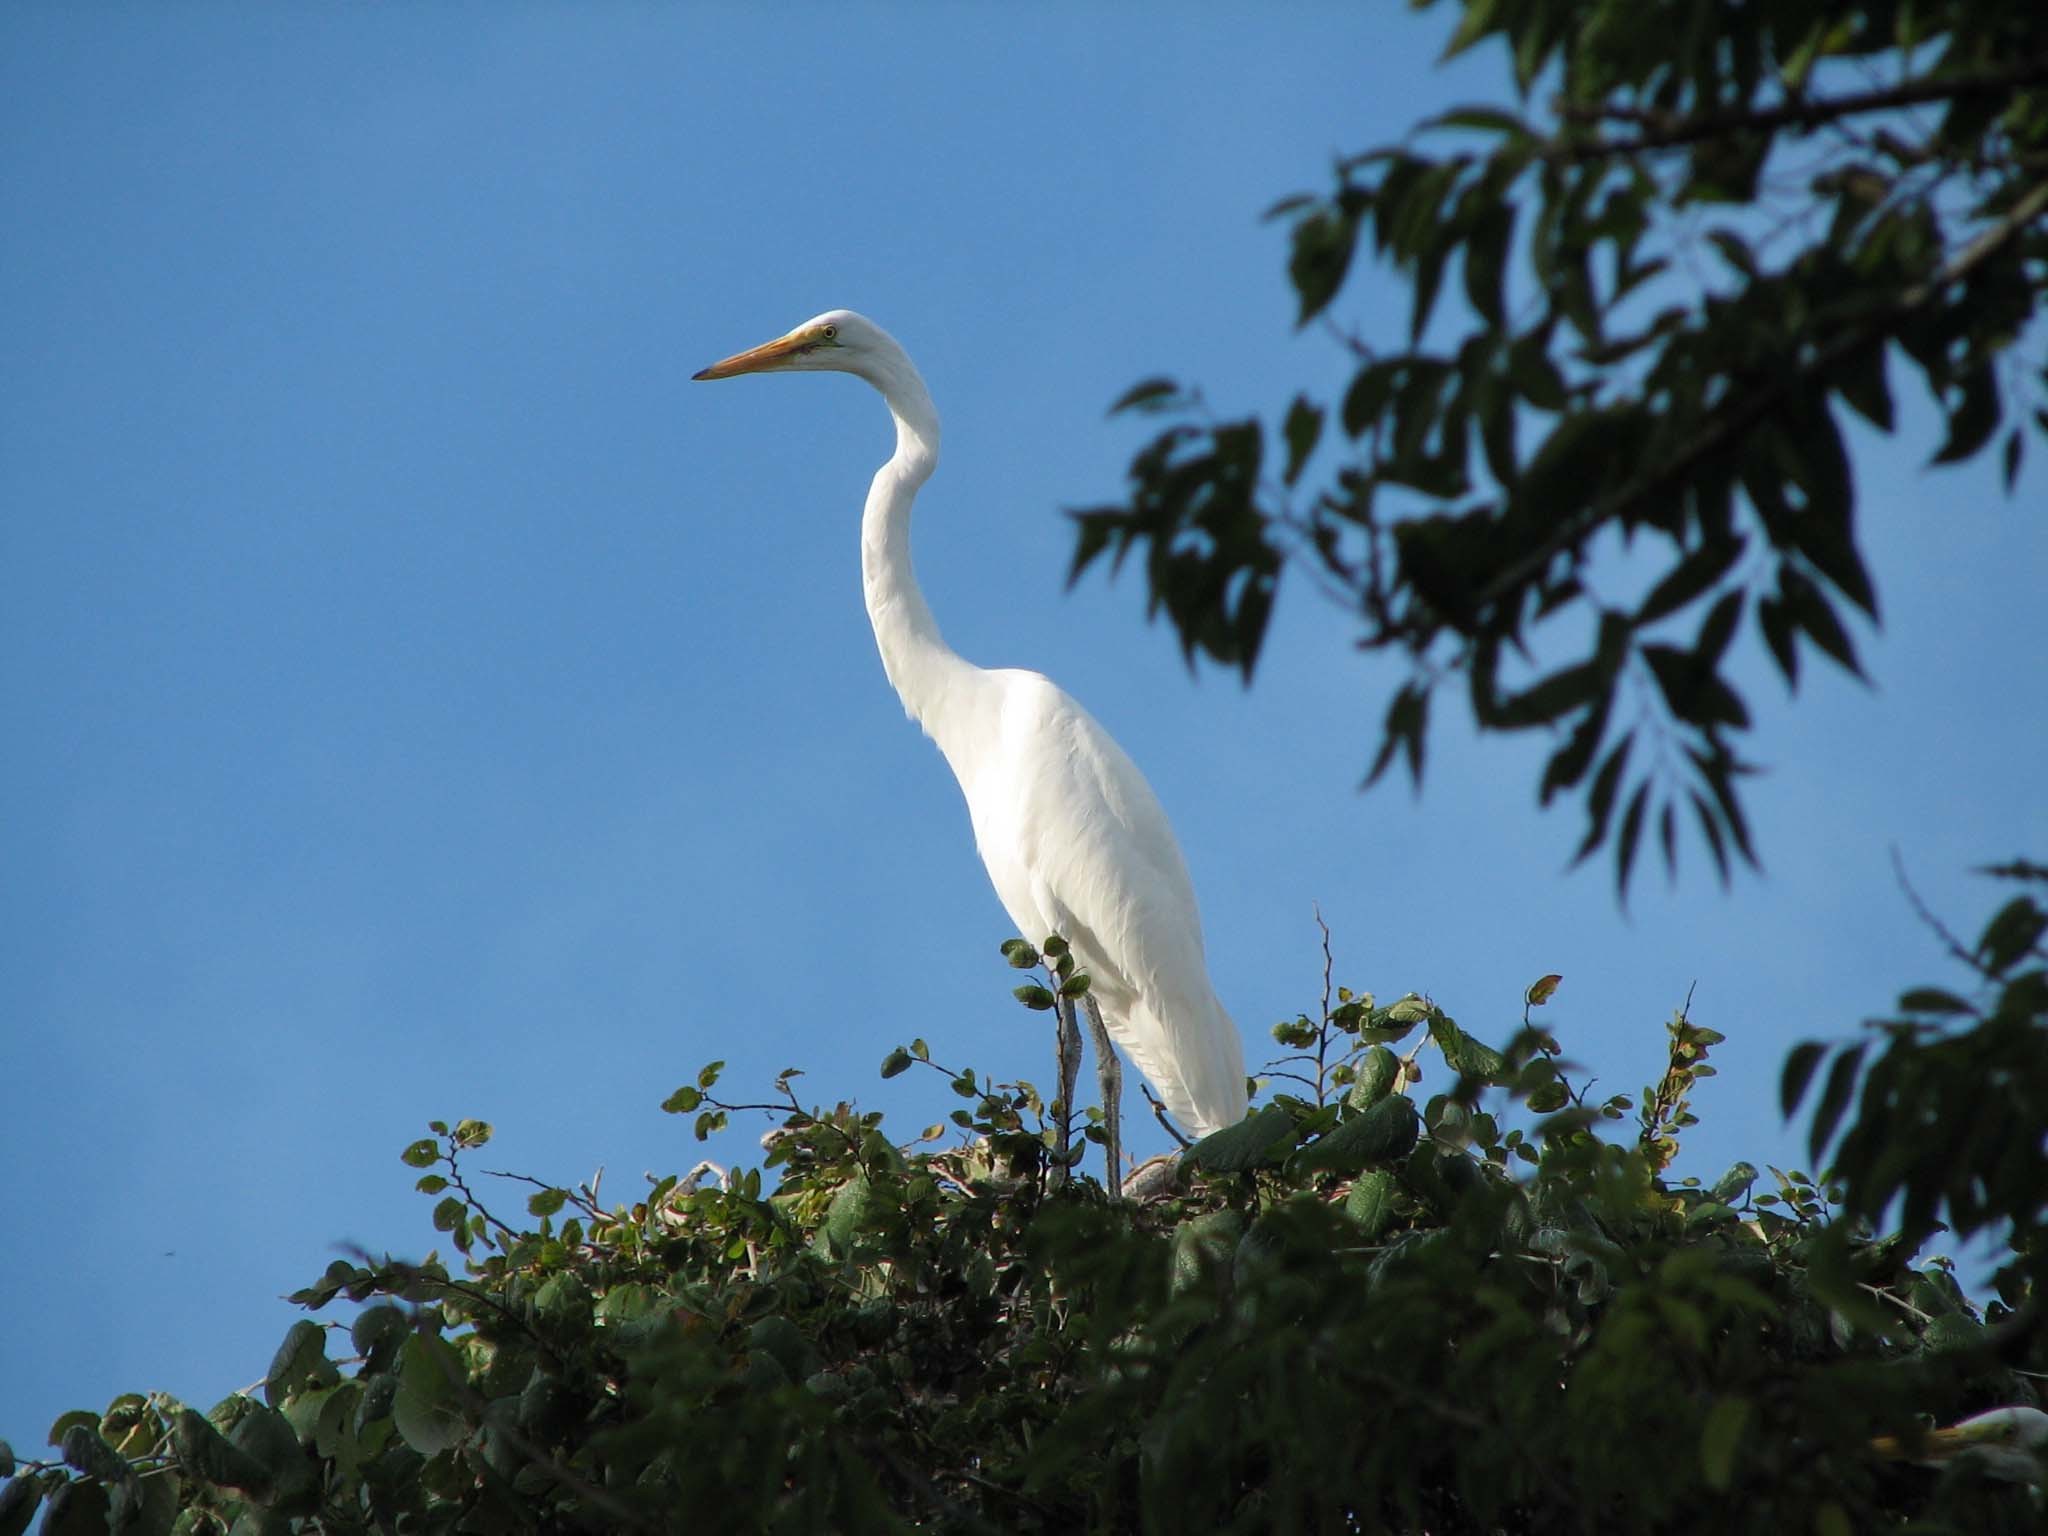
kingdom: Animalia
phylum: Chordata
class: Aves
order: Pelecaniformes
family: Ardeidae
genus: Ardea
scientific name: Ardea alba
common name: Great egret
